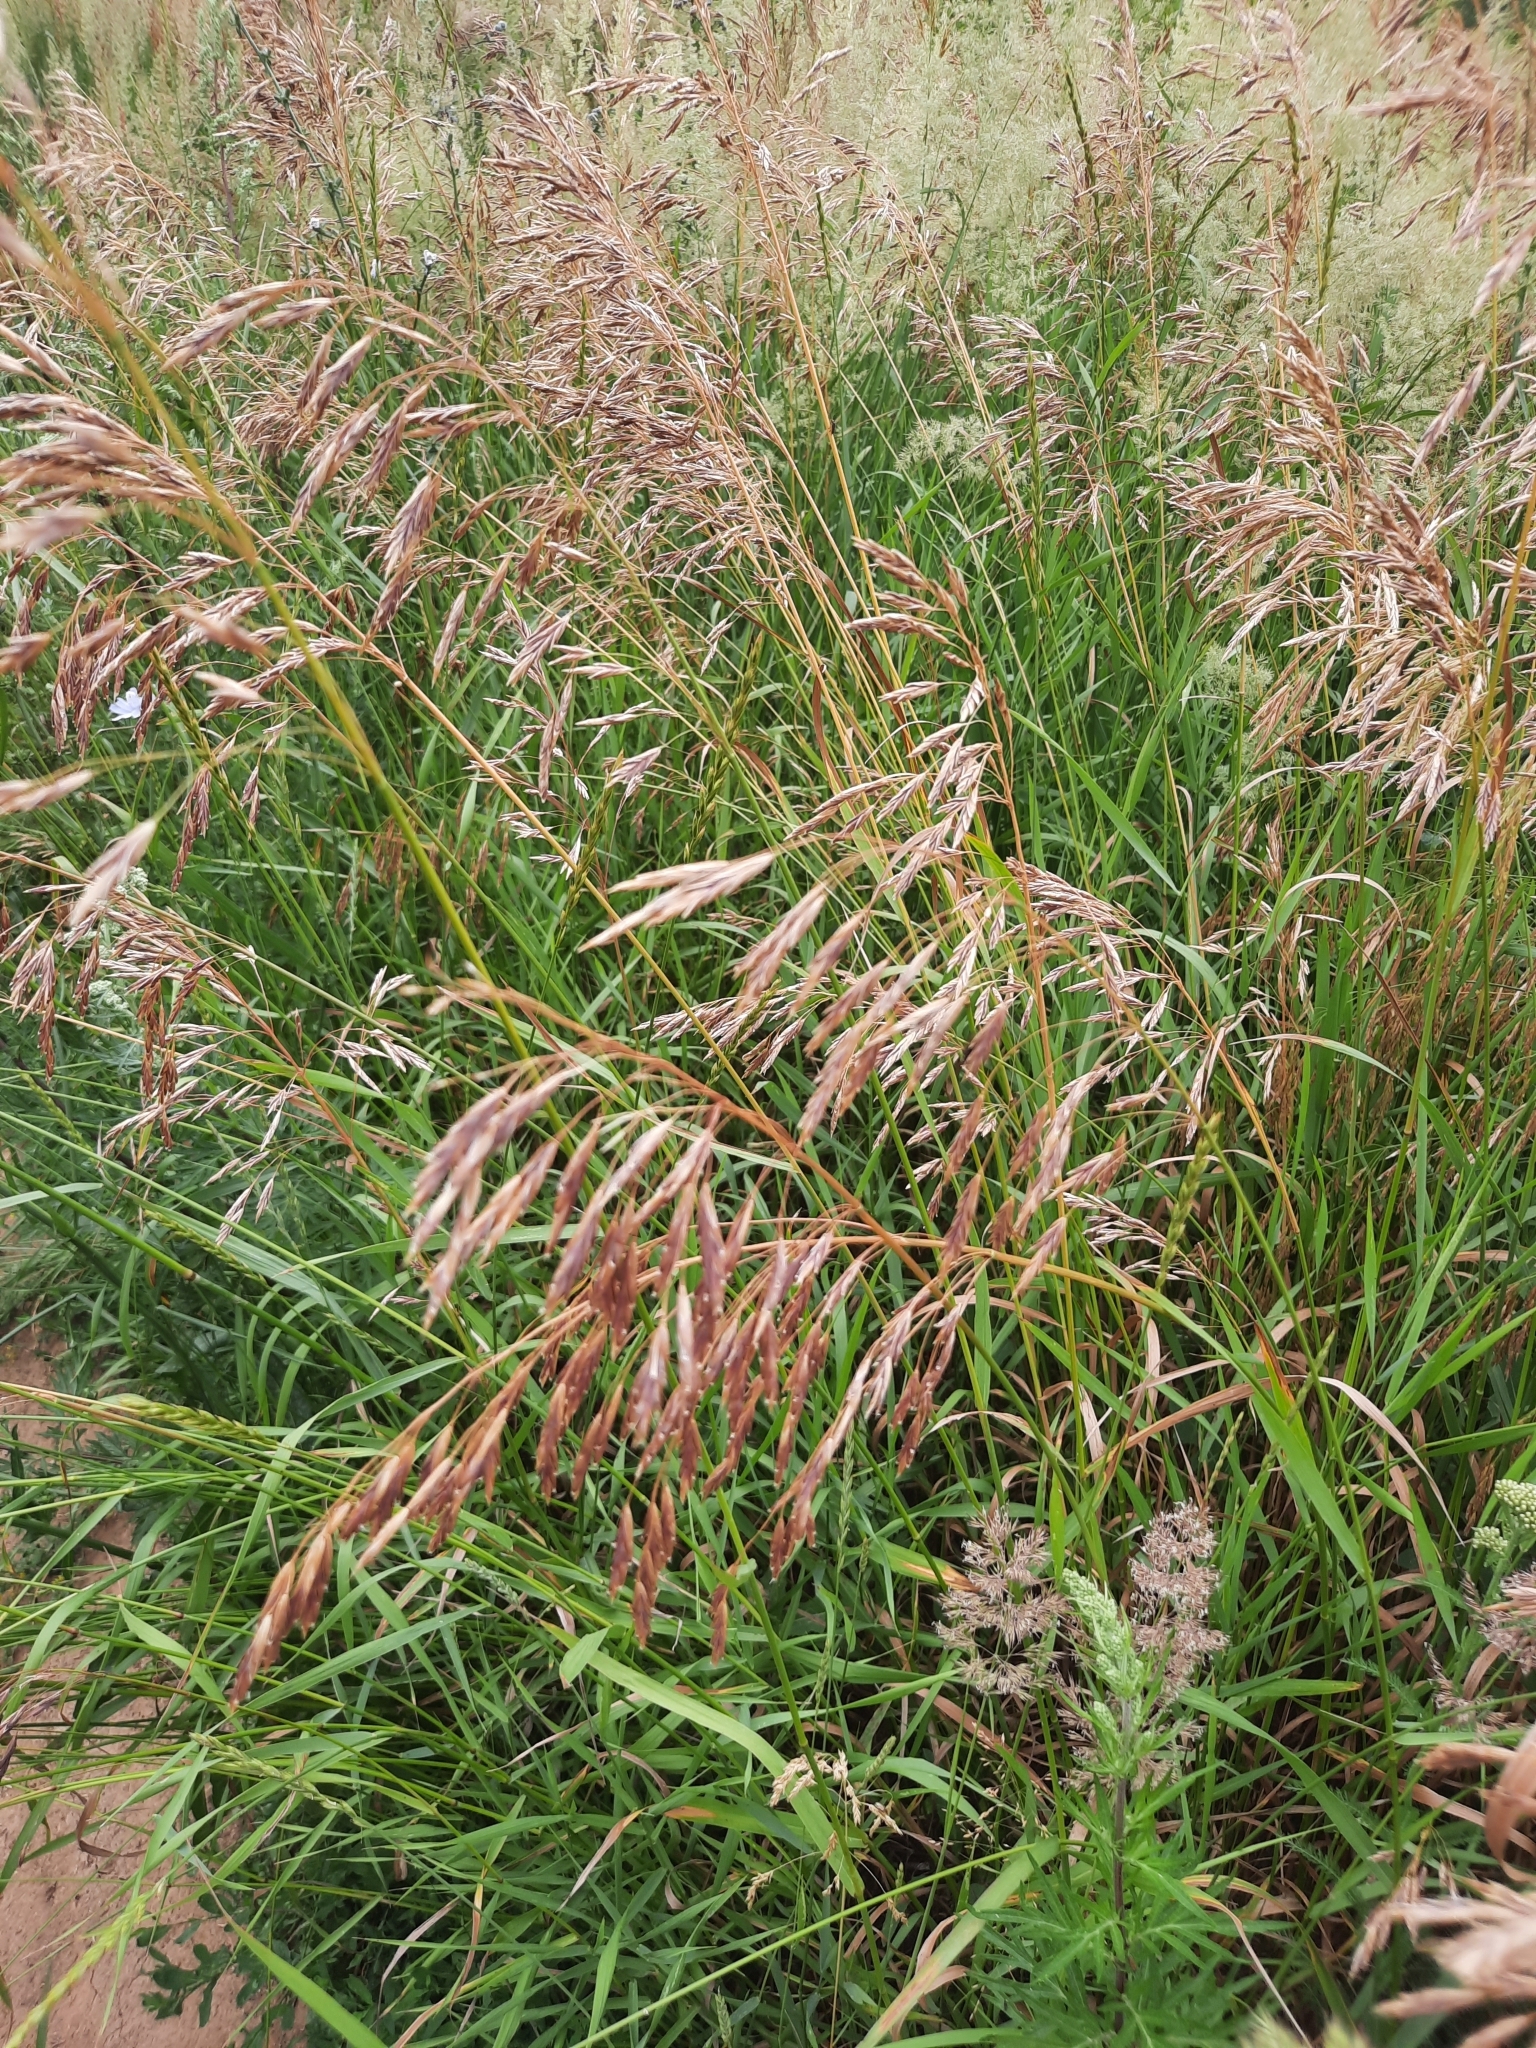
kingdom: Plantae
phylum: Tracheophyta
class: Liliopsida
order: Poales
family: Poaceae
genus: Bromus
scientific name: Bromus inermis
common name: Smooth brome
